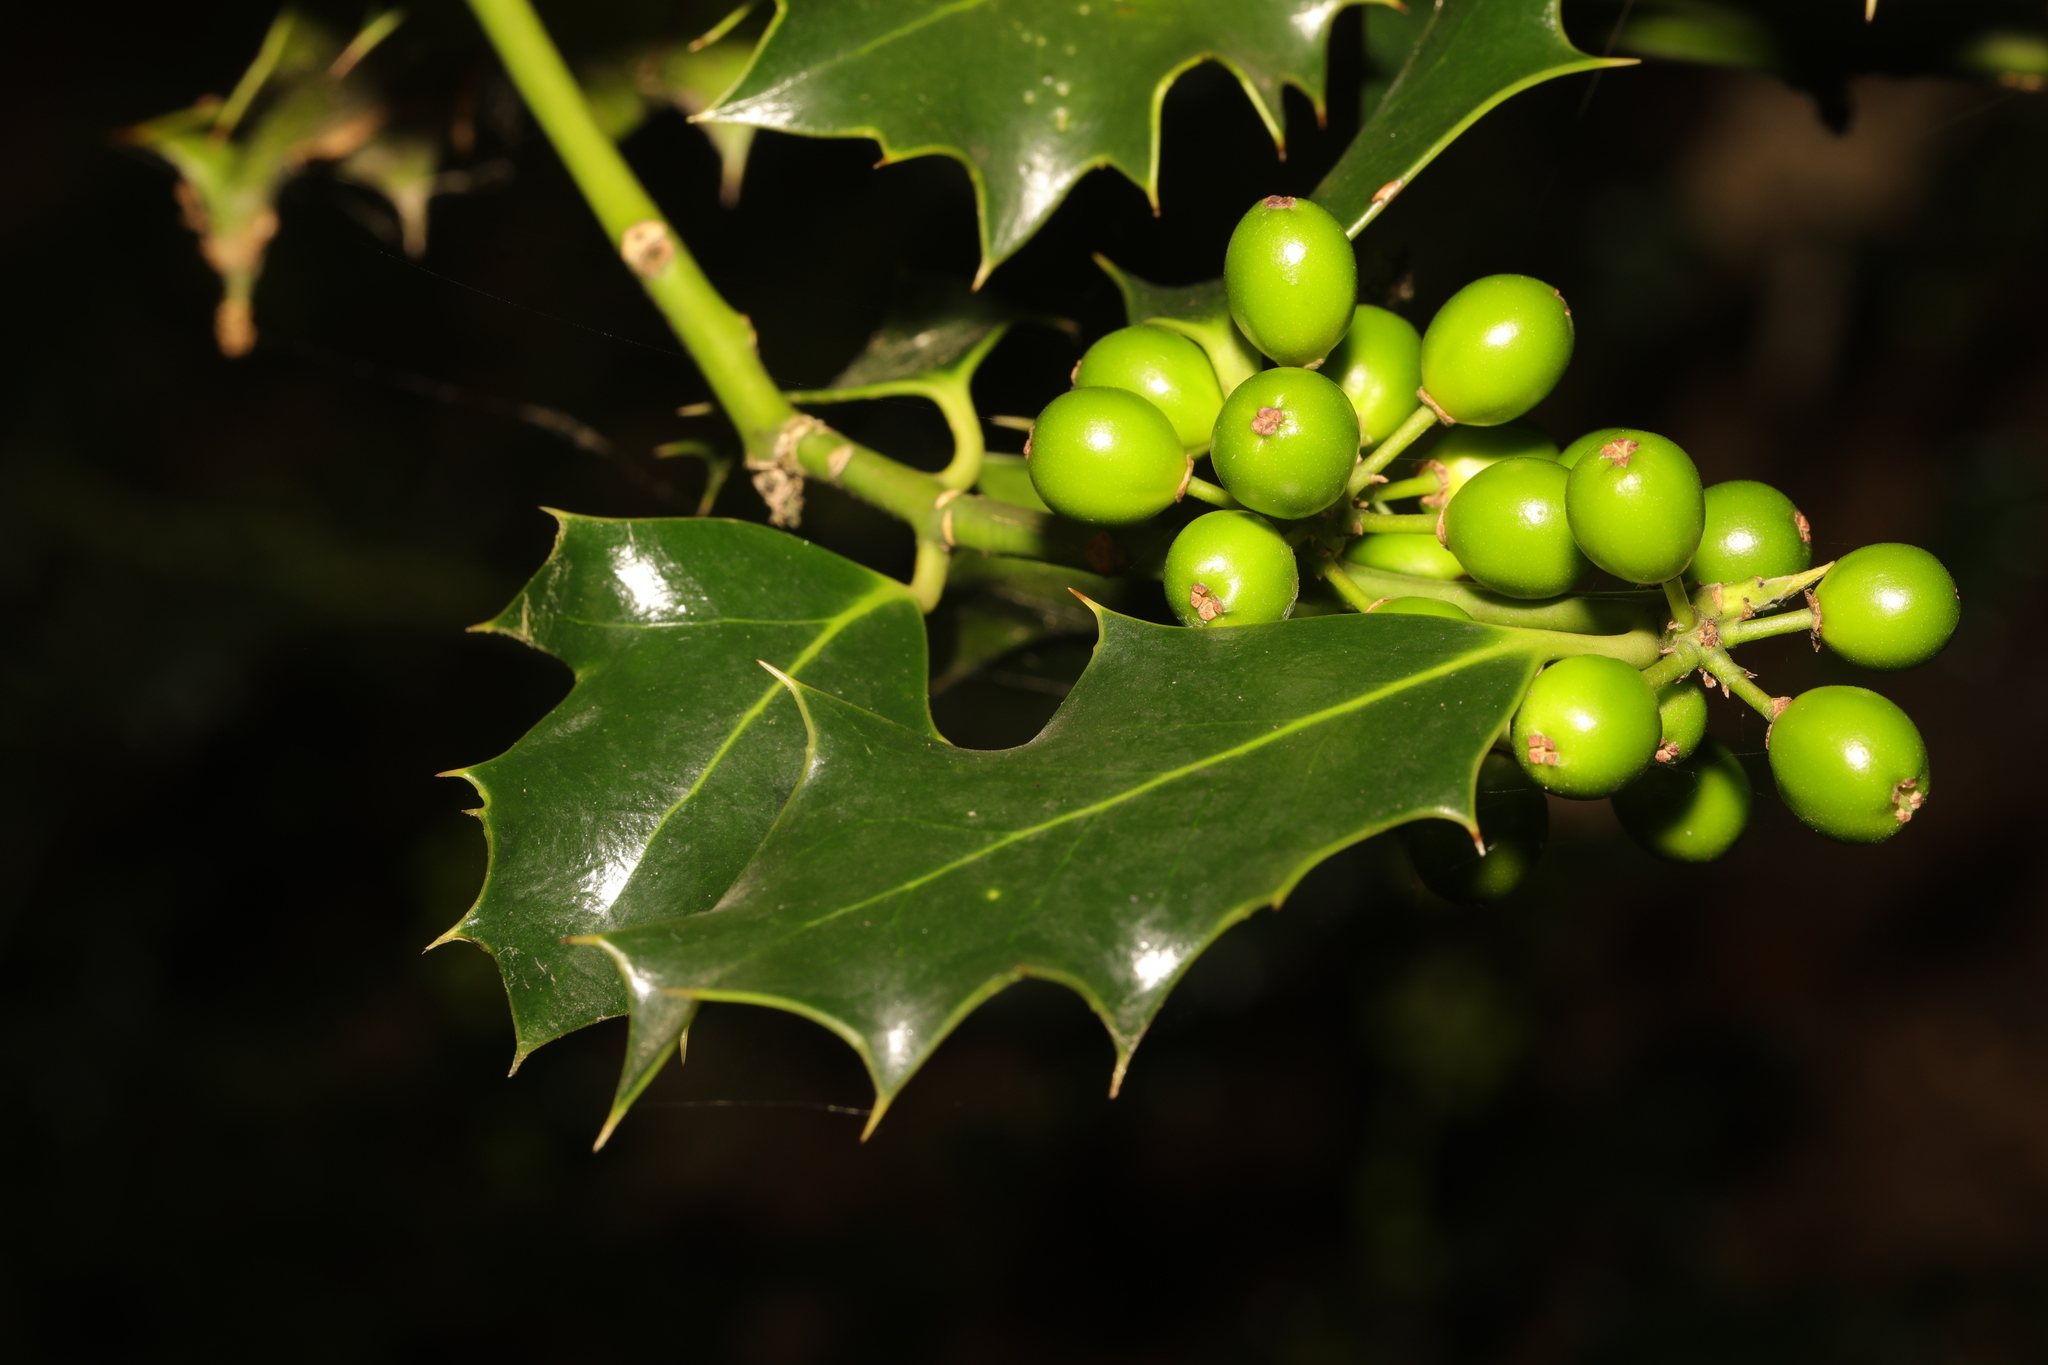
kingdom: Plantae
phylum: Tracheophyta
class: Magnoliopsida
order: Aquifoliales
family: Aquifoliaceae
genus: Ilex
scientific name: Ilex aquifolium
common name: English holly
